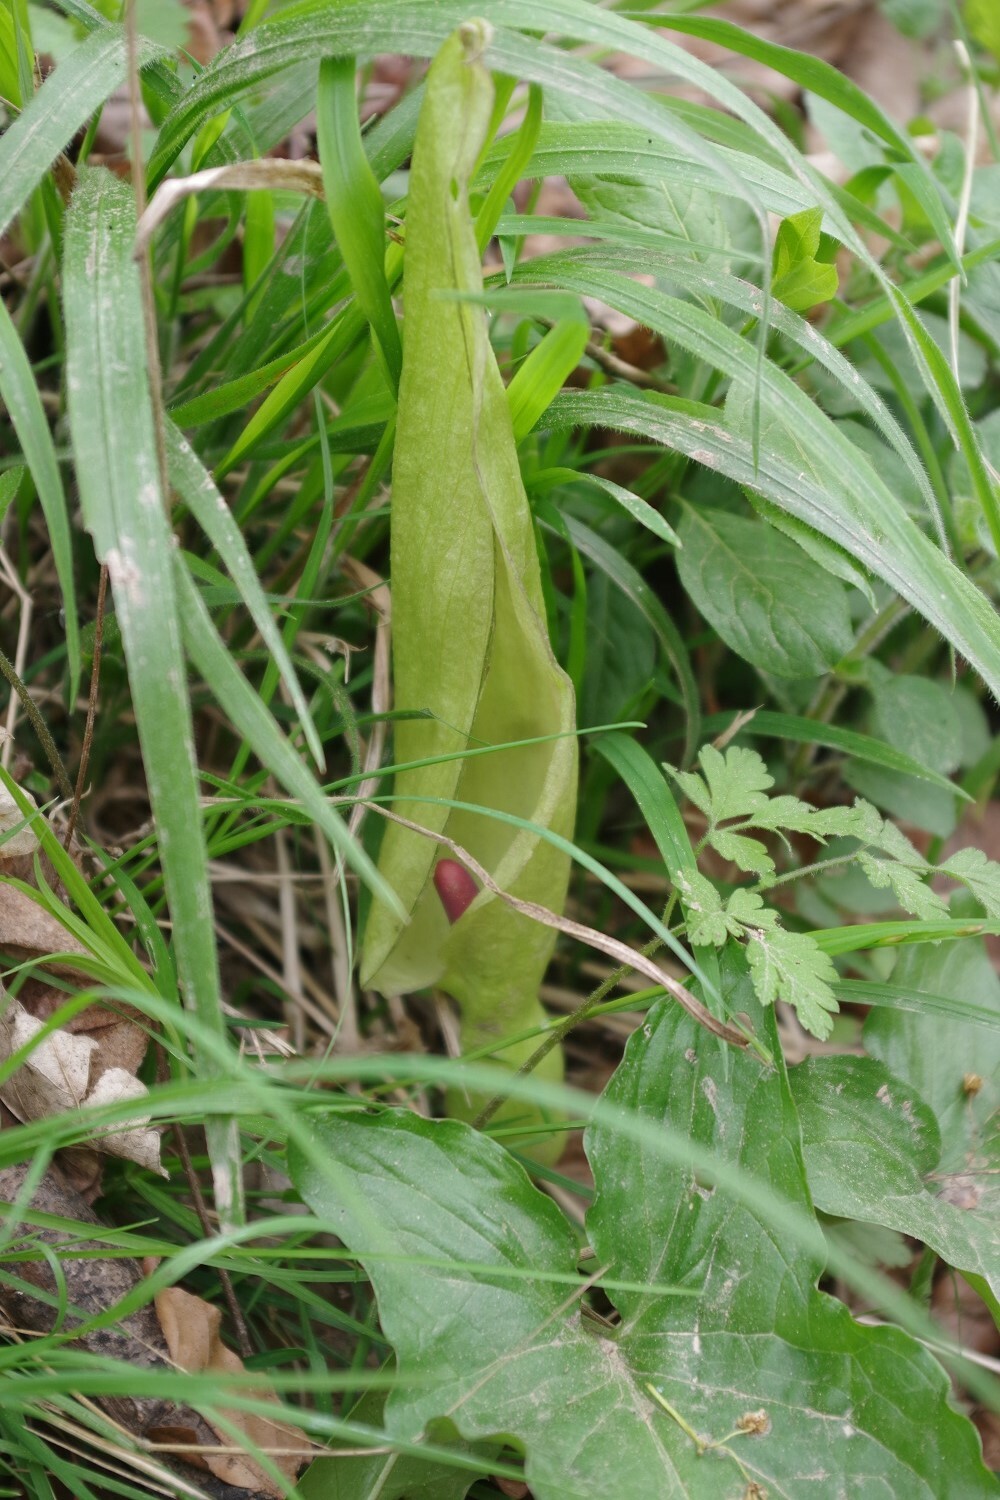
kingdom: Plantae
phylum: Tracheophyta
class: Liliopsida
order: Alismatales
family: Araceae
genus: Arum
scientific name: Arum maculatum
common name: Lords-and-ladies
